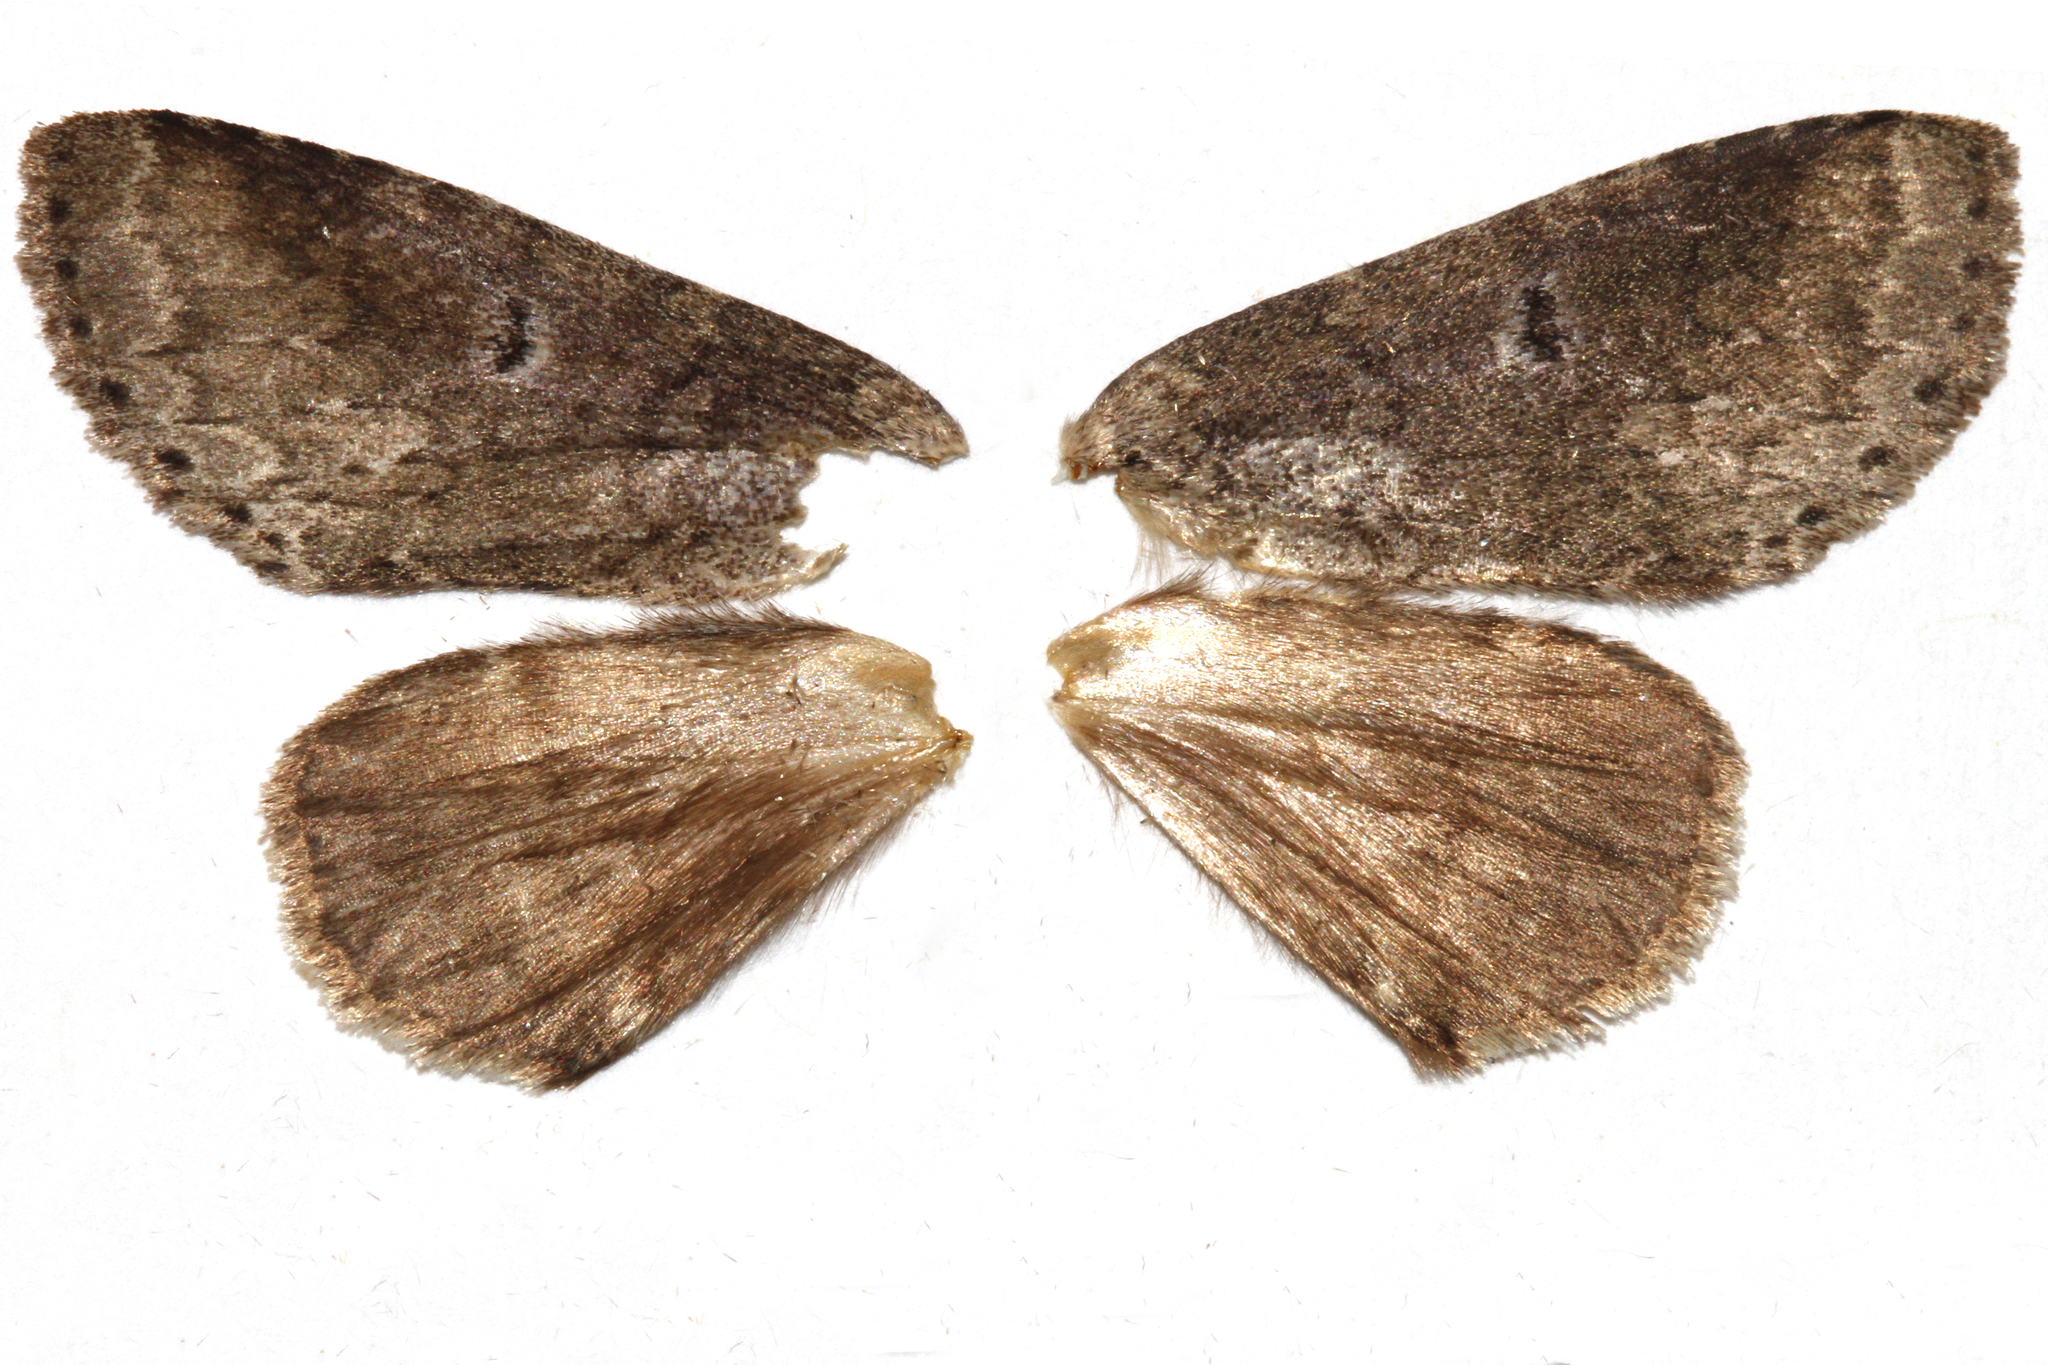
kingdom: Animalia
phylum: Arthropoda
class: Insecta
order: Lepidoptera
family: Notodontidae
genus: Lochmaeus
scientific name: Lochmaeus manteo
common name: Variable oakleaf caterpillar moth
